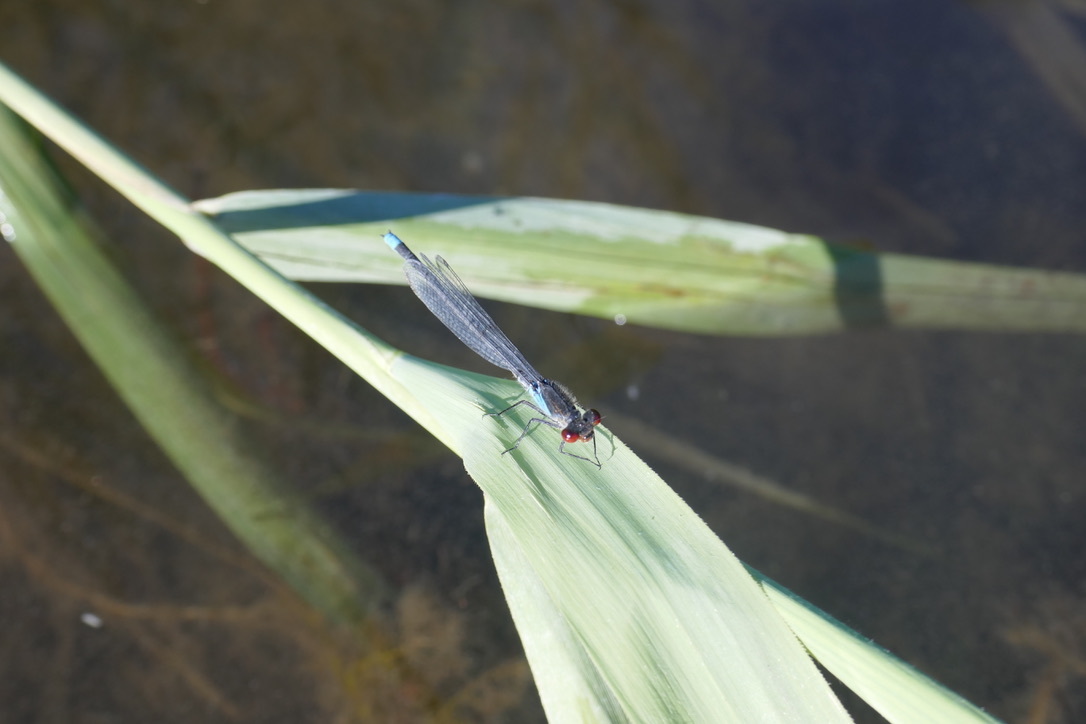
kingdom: Animalia
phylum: Arthropoda
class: Insecta
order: Odonata
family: Coenagrionidae
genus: Erythromma
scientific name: Erythromma najas
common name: Red-eyed damselfly
